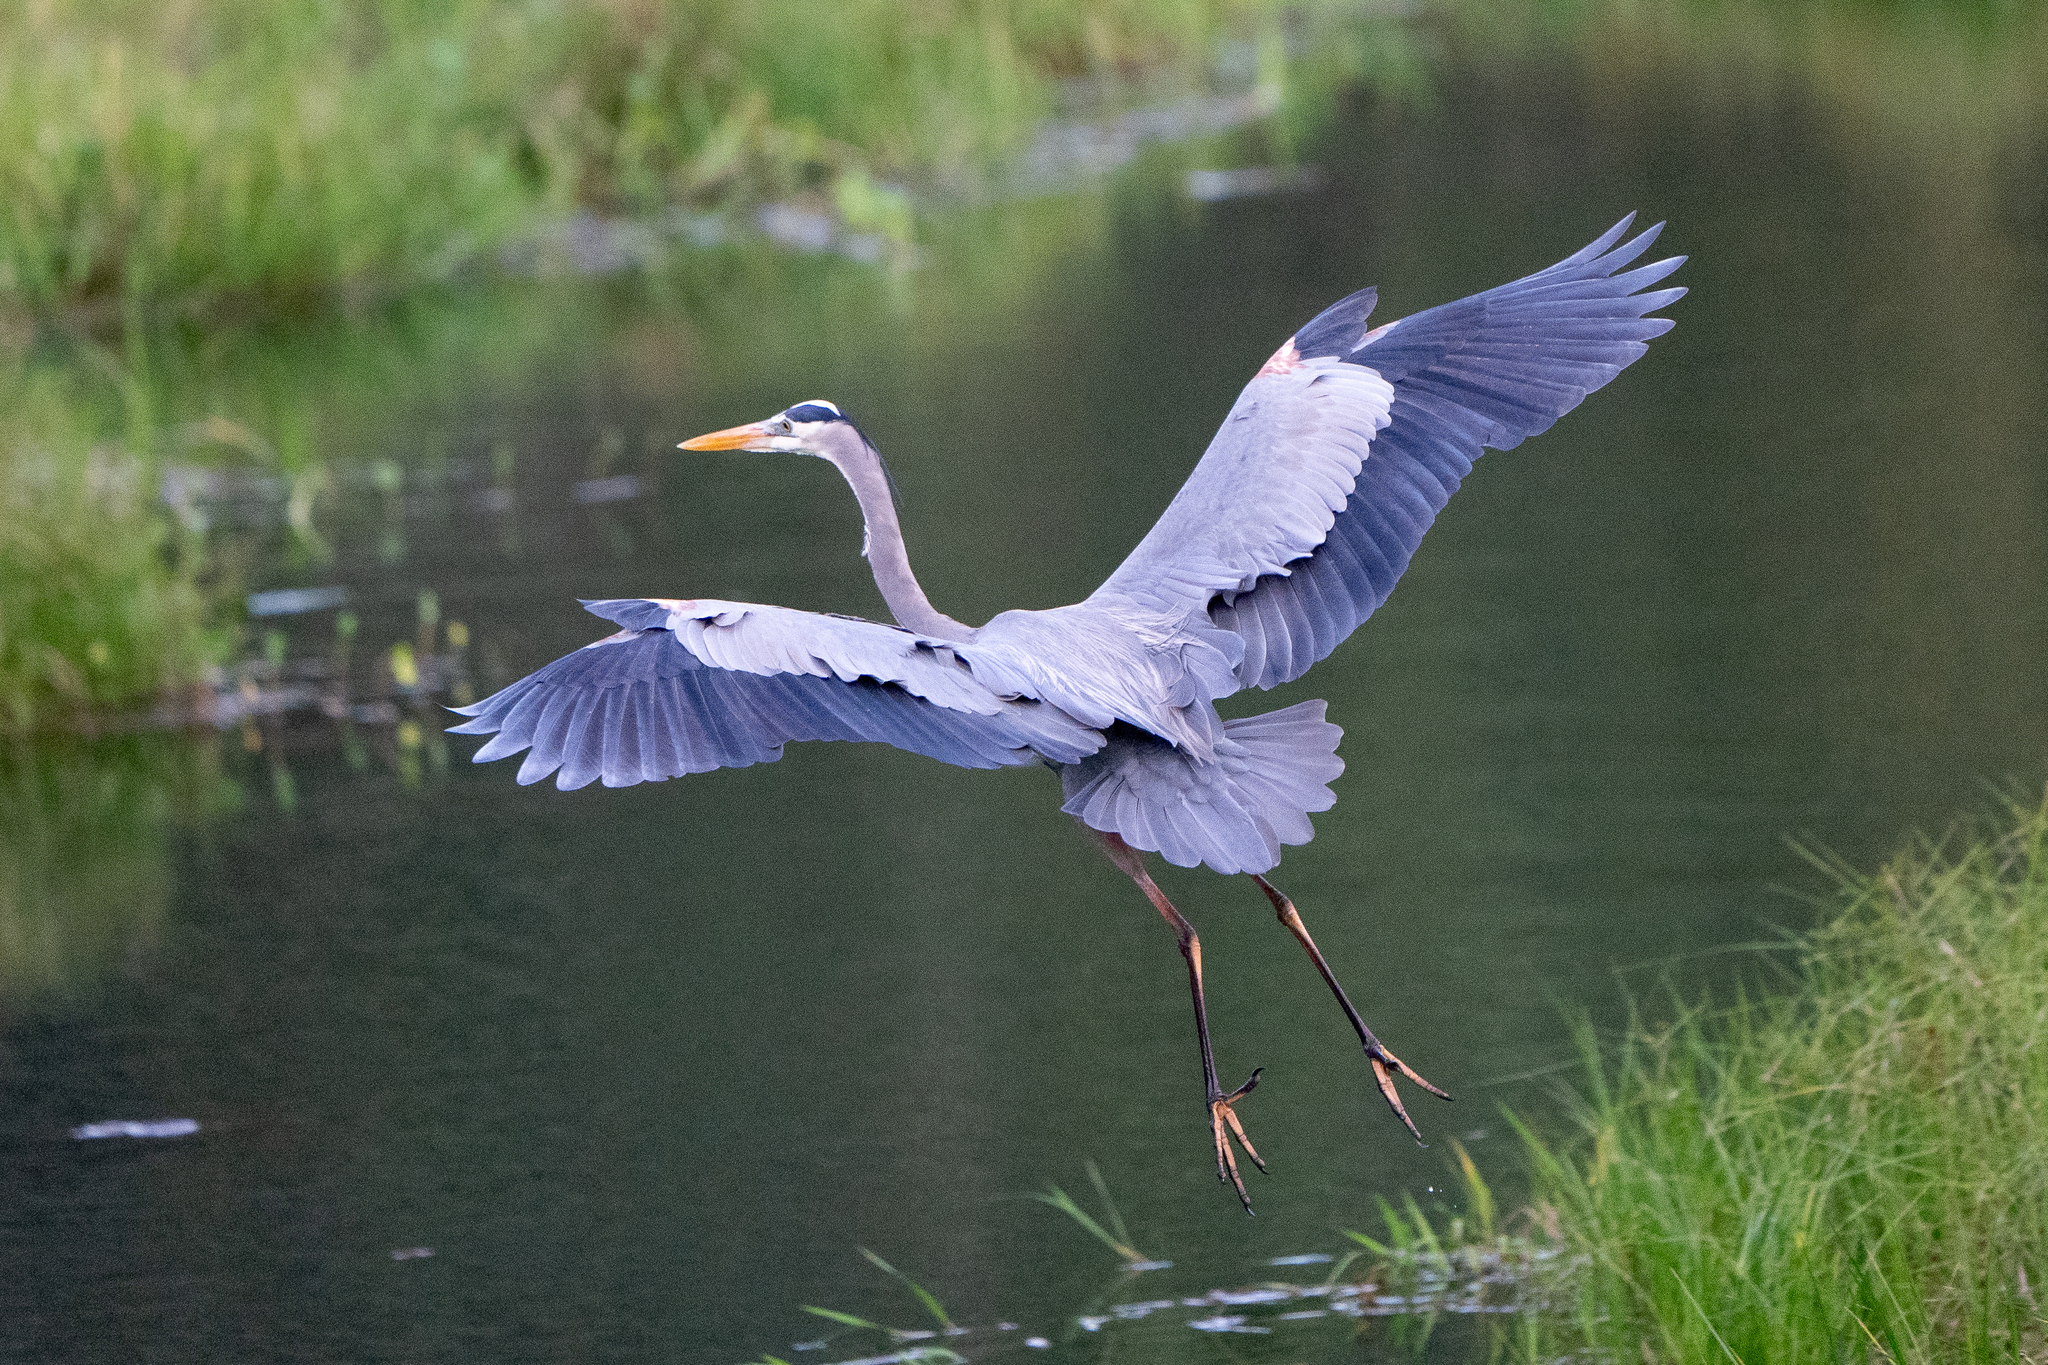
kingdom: Animalia
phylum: Chordata
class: Aves
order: Pelecaniformes
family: Ardeidae
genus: Ardea
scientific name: Ardea herodias
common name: Great blue heron
